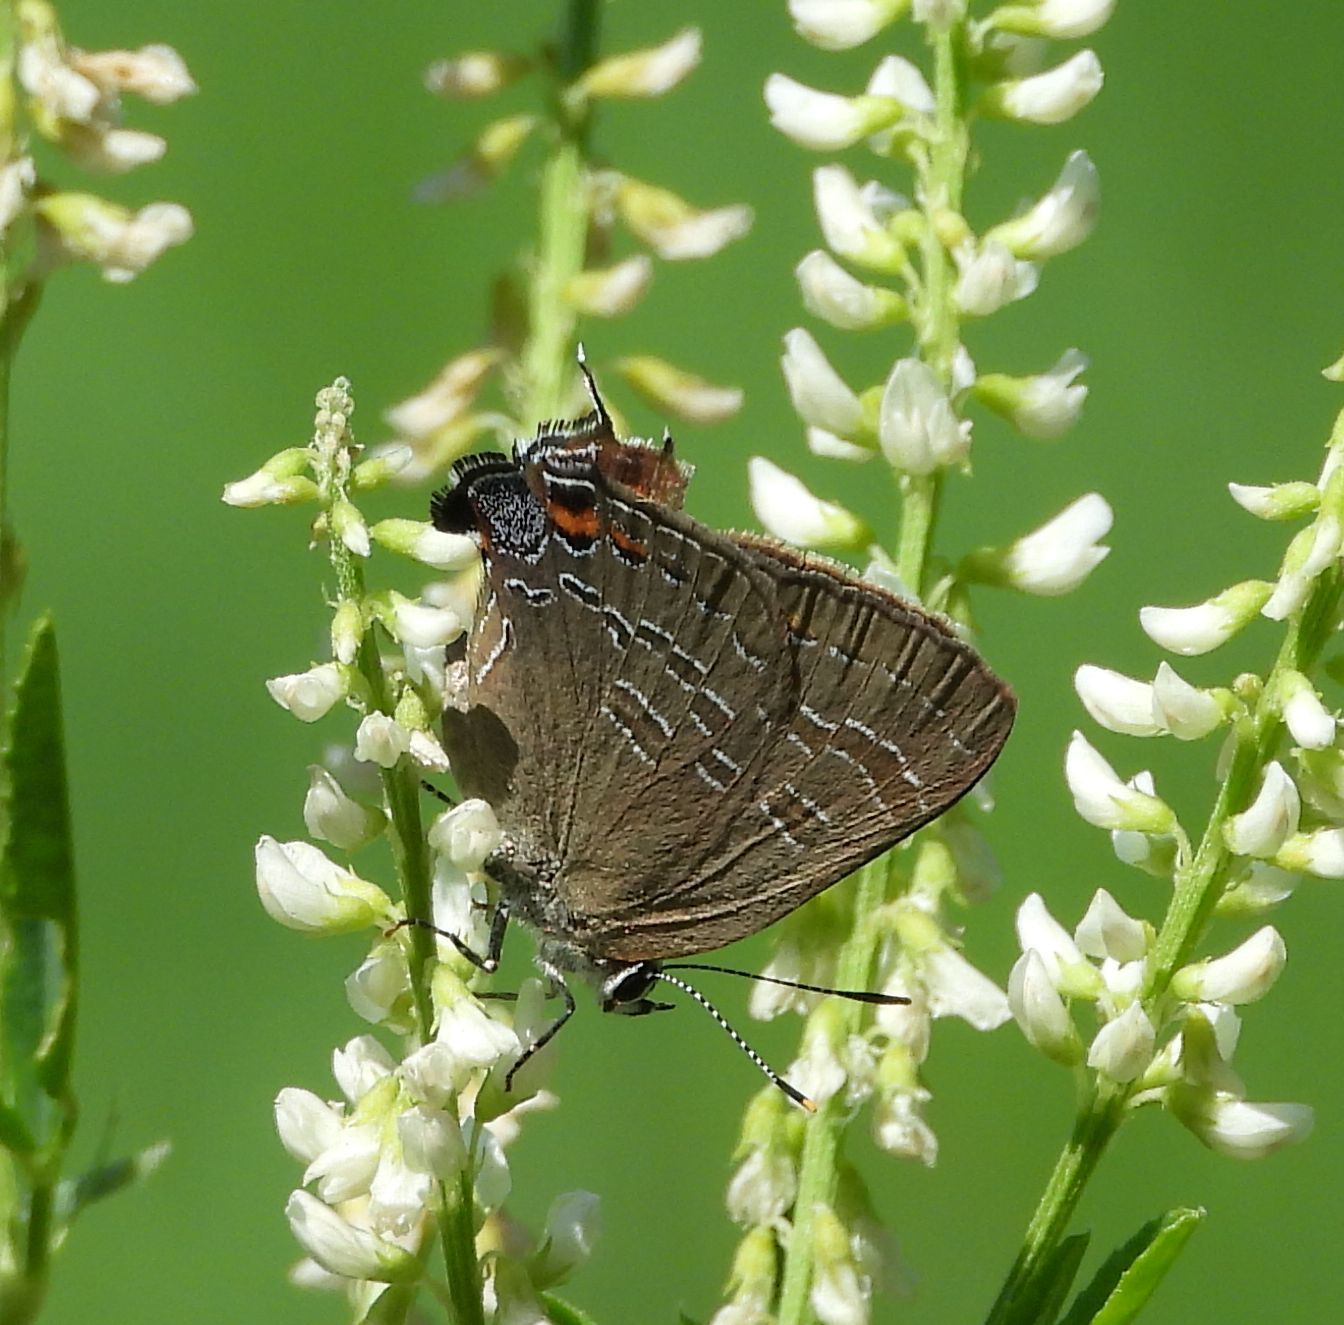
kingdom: Animalia
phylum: Arthropoda
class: Insecta
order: Lepidoptera
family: Lycaenidae
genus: Satyrium
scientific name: Satyrium calanus
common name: Banded hairstreak
